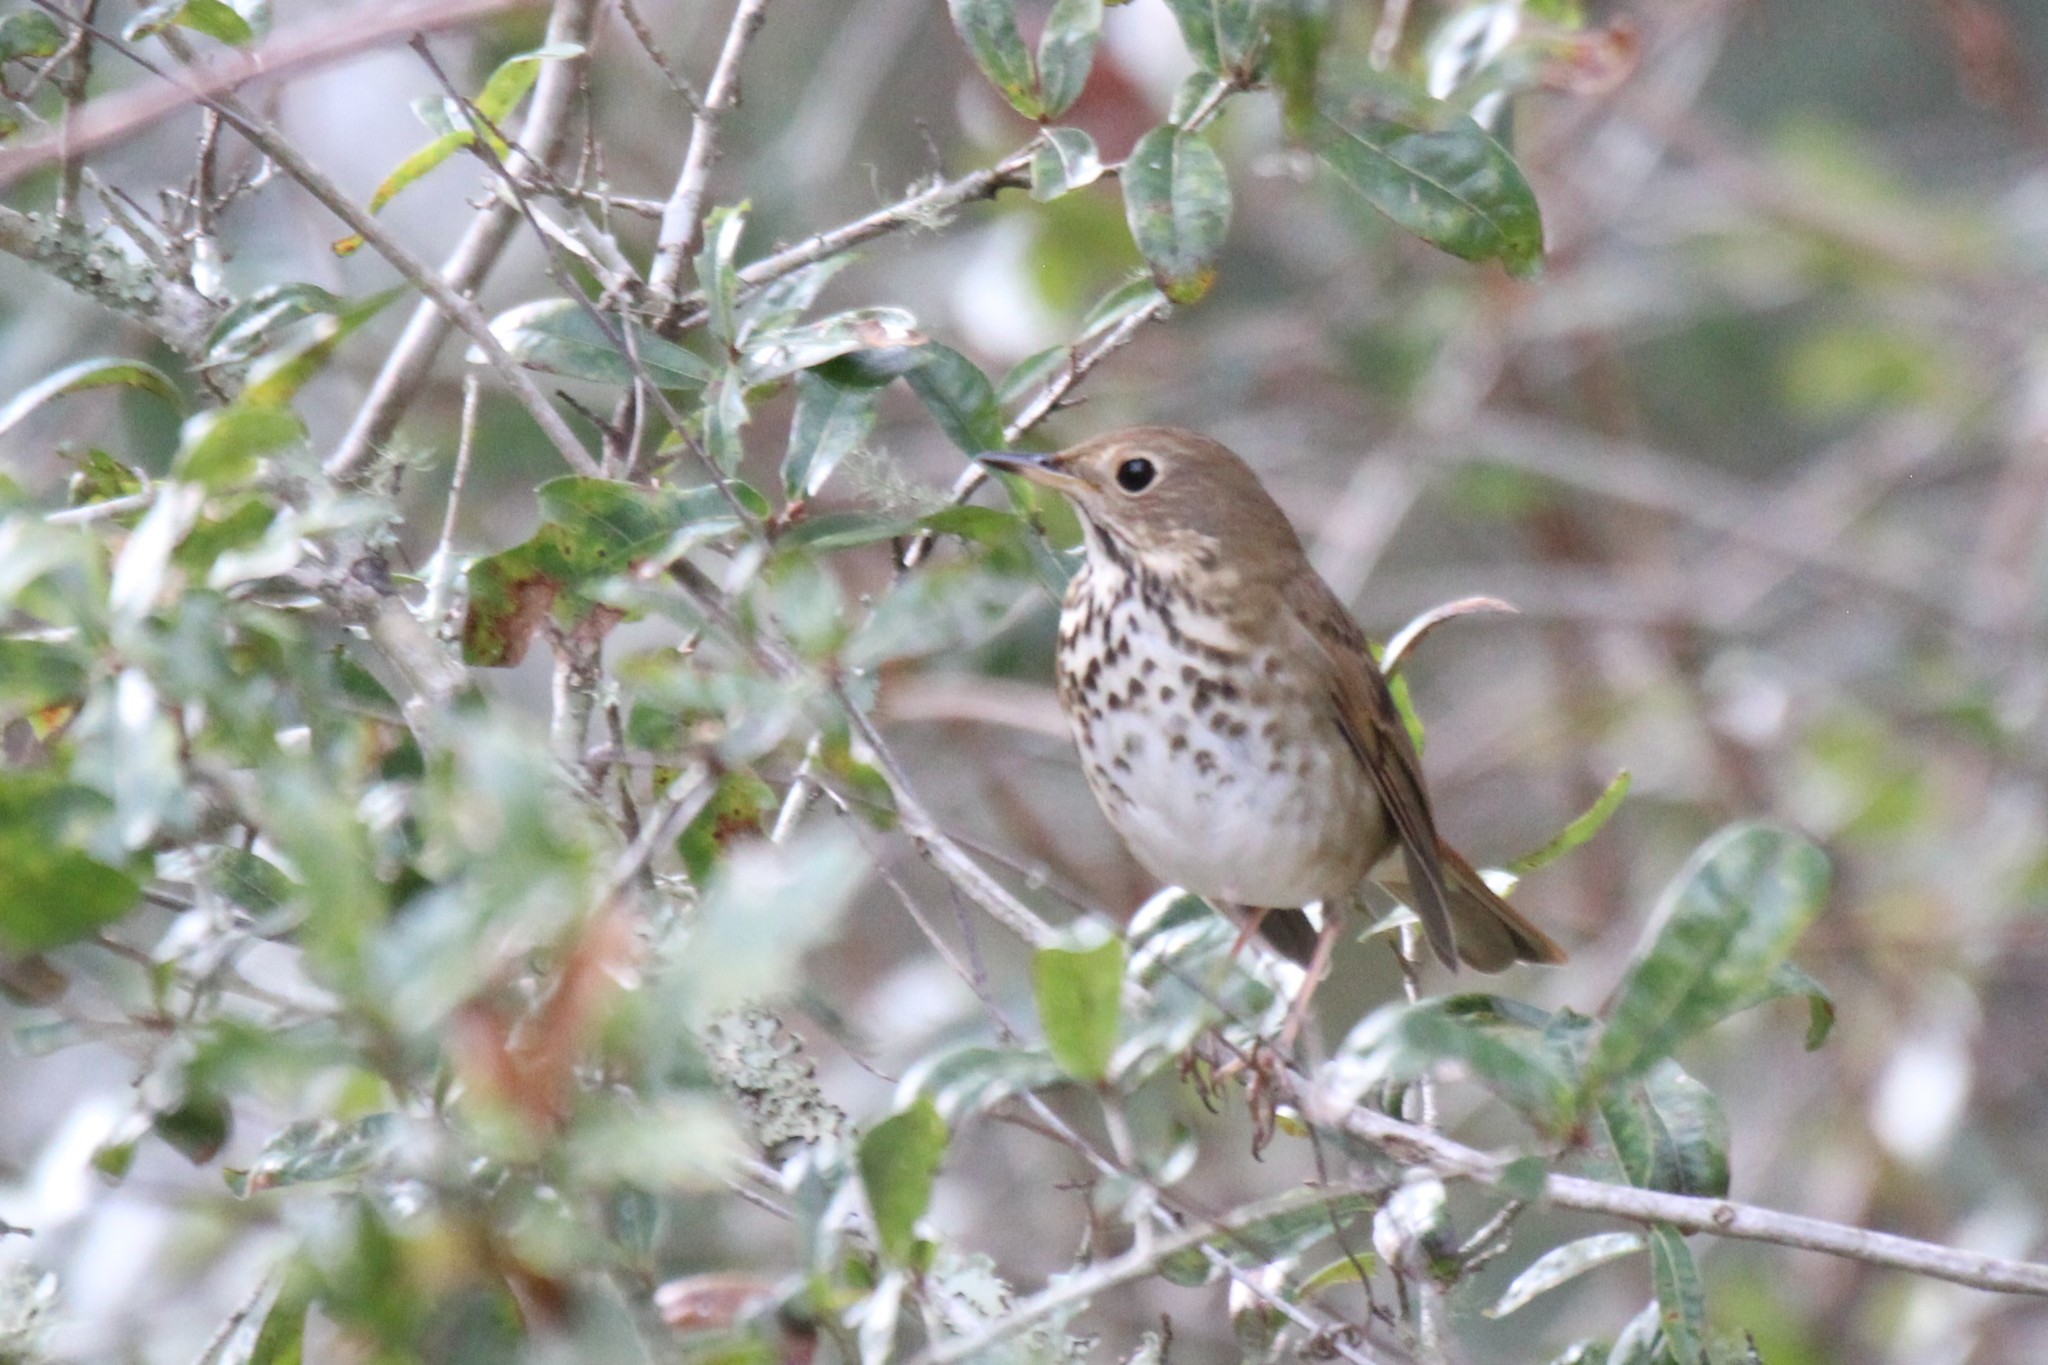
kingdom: Animalia
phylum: Chordata
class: Aves
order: Passeriformes
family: Turdidae
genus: Catharus
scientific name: Catharus guttatus
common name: Hermit thrush
